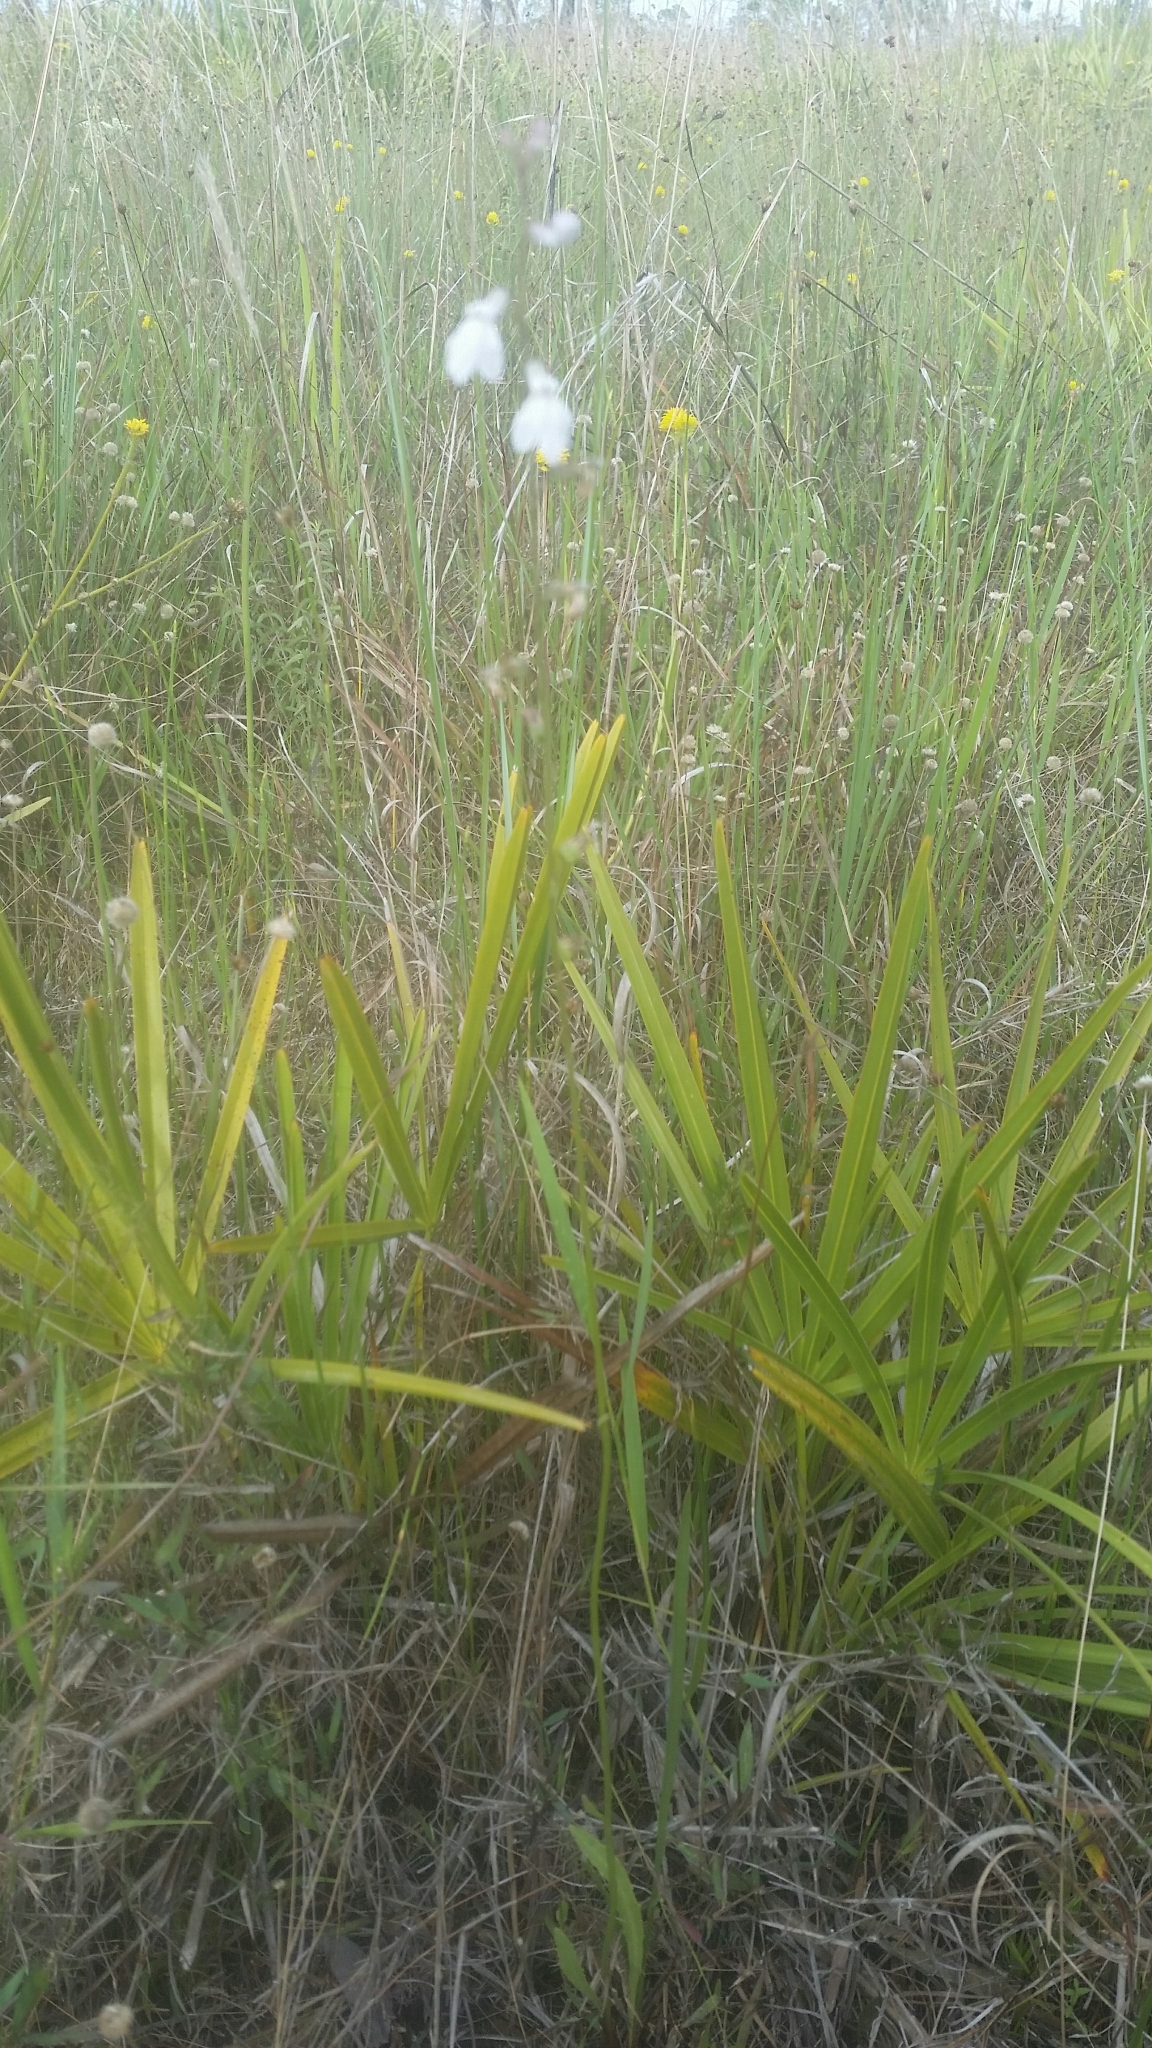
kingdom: Plantae
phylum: Tracheophyta
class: Magnoliopsida
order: Asterales
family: Campanulaceae
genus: Lobelia
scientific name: Lobelia paludosa
